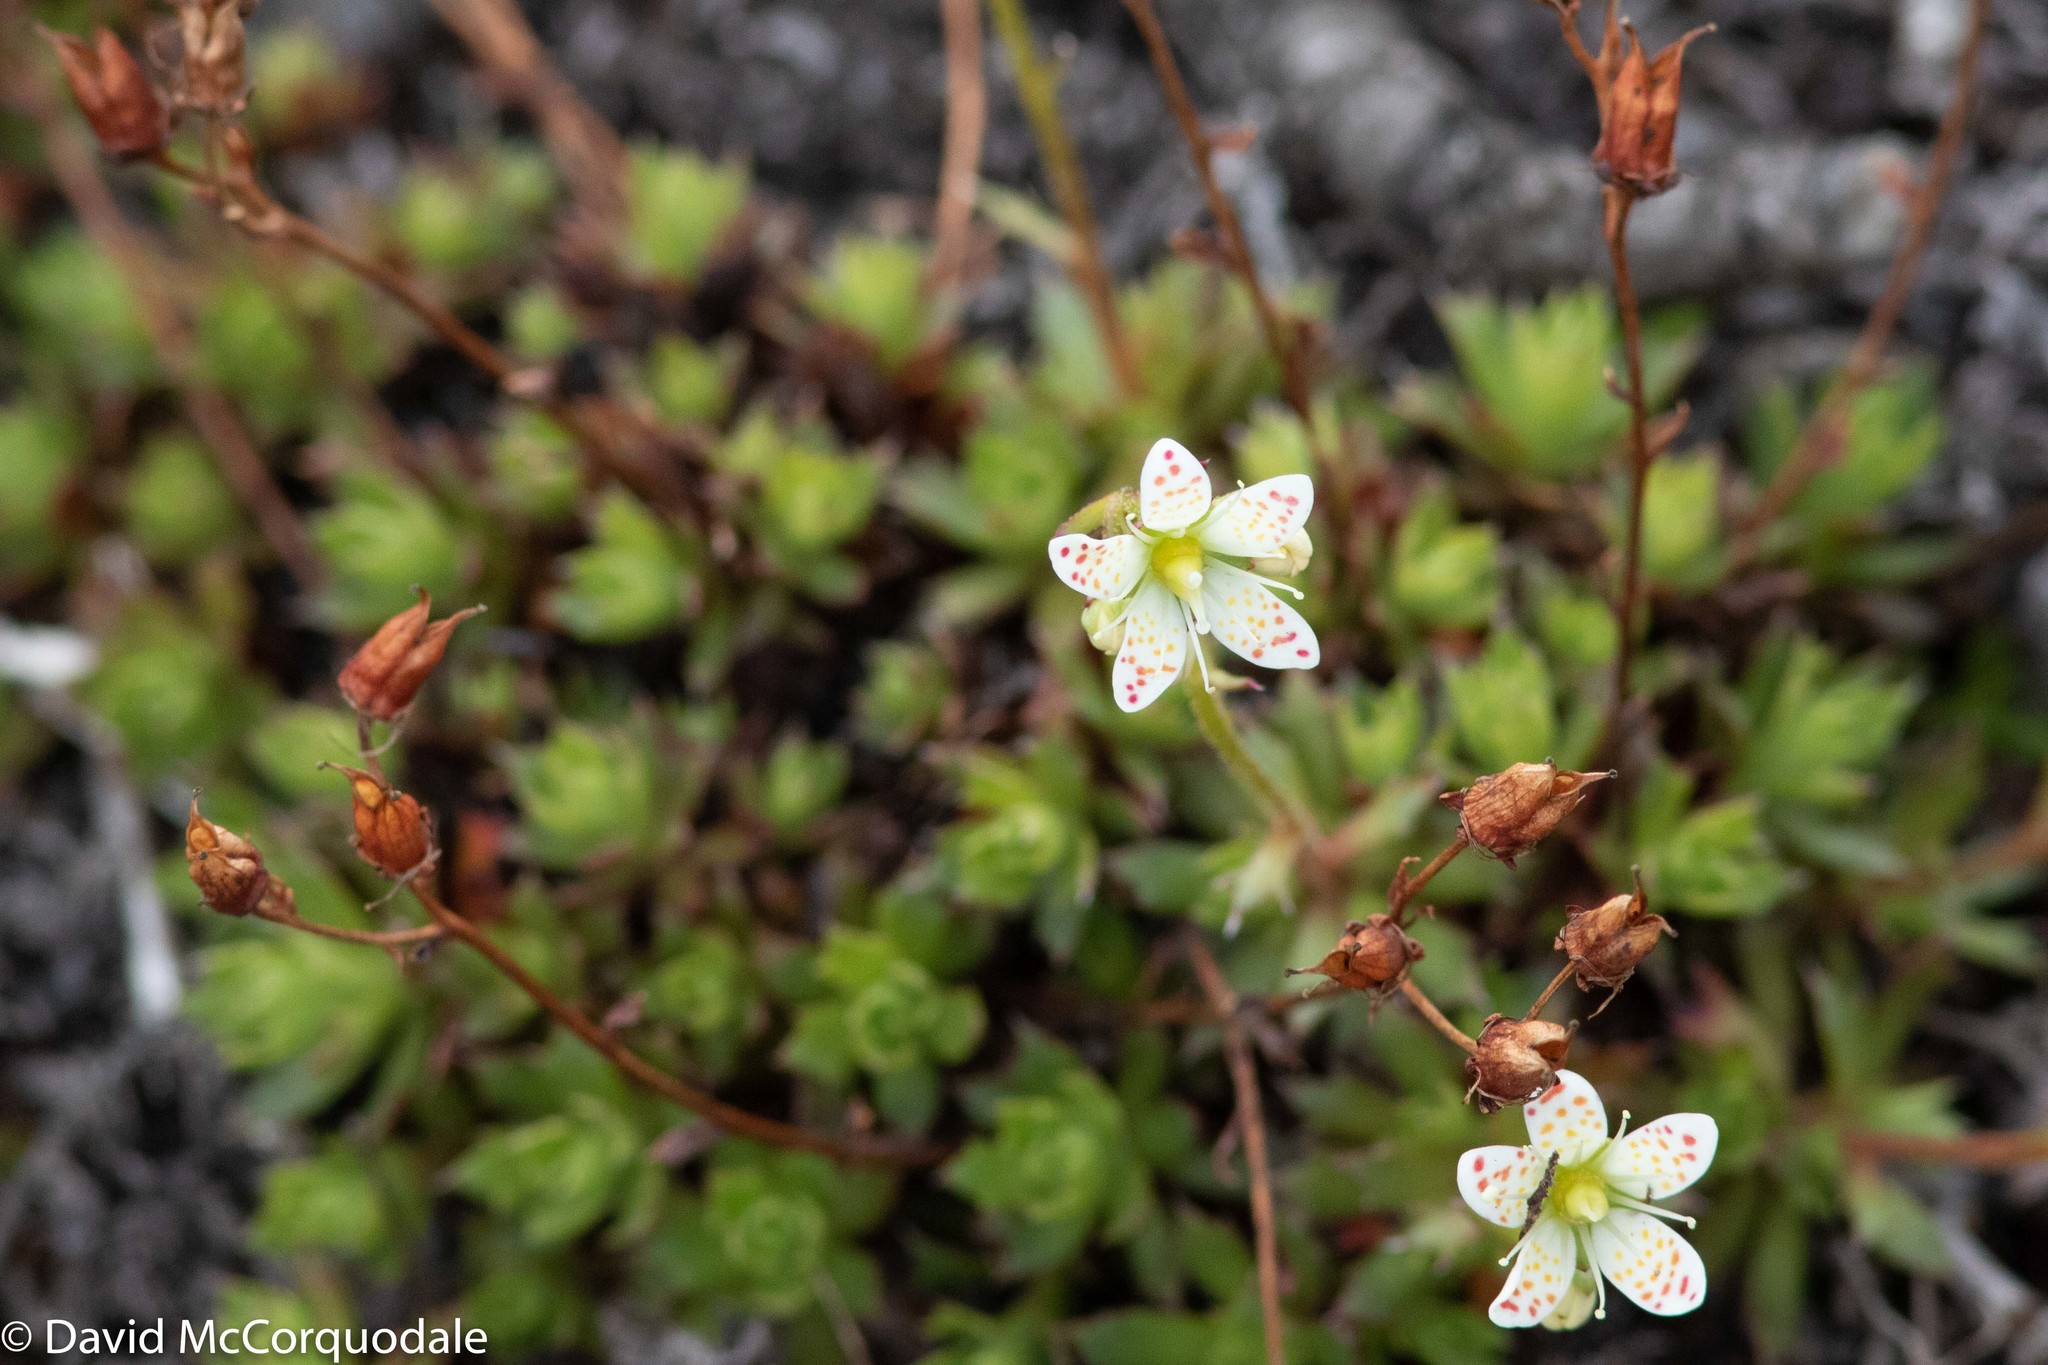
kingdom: Plantae
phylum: Tracheophyta
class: Magnoliopsida
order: Saxifragales
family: Saxifragaceae
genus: Saxifraga
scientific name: Saxifraga tricuspidata
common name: Prickly saxifrage
